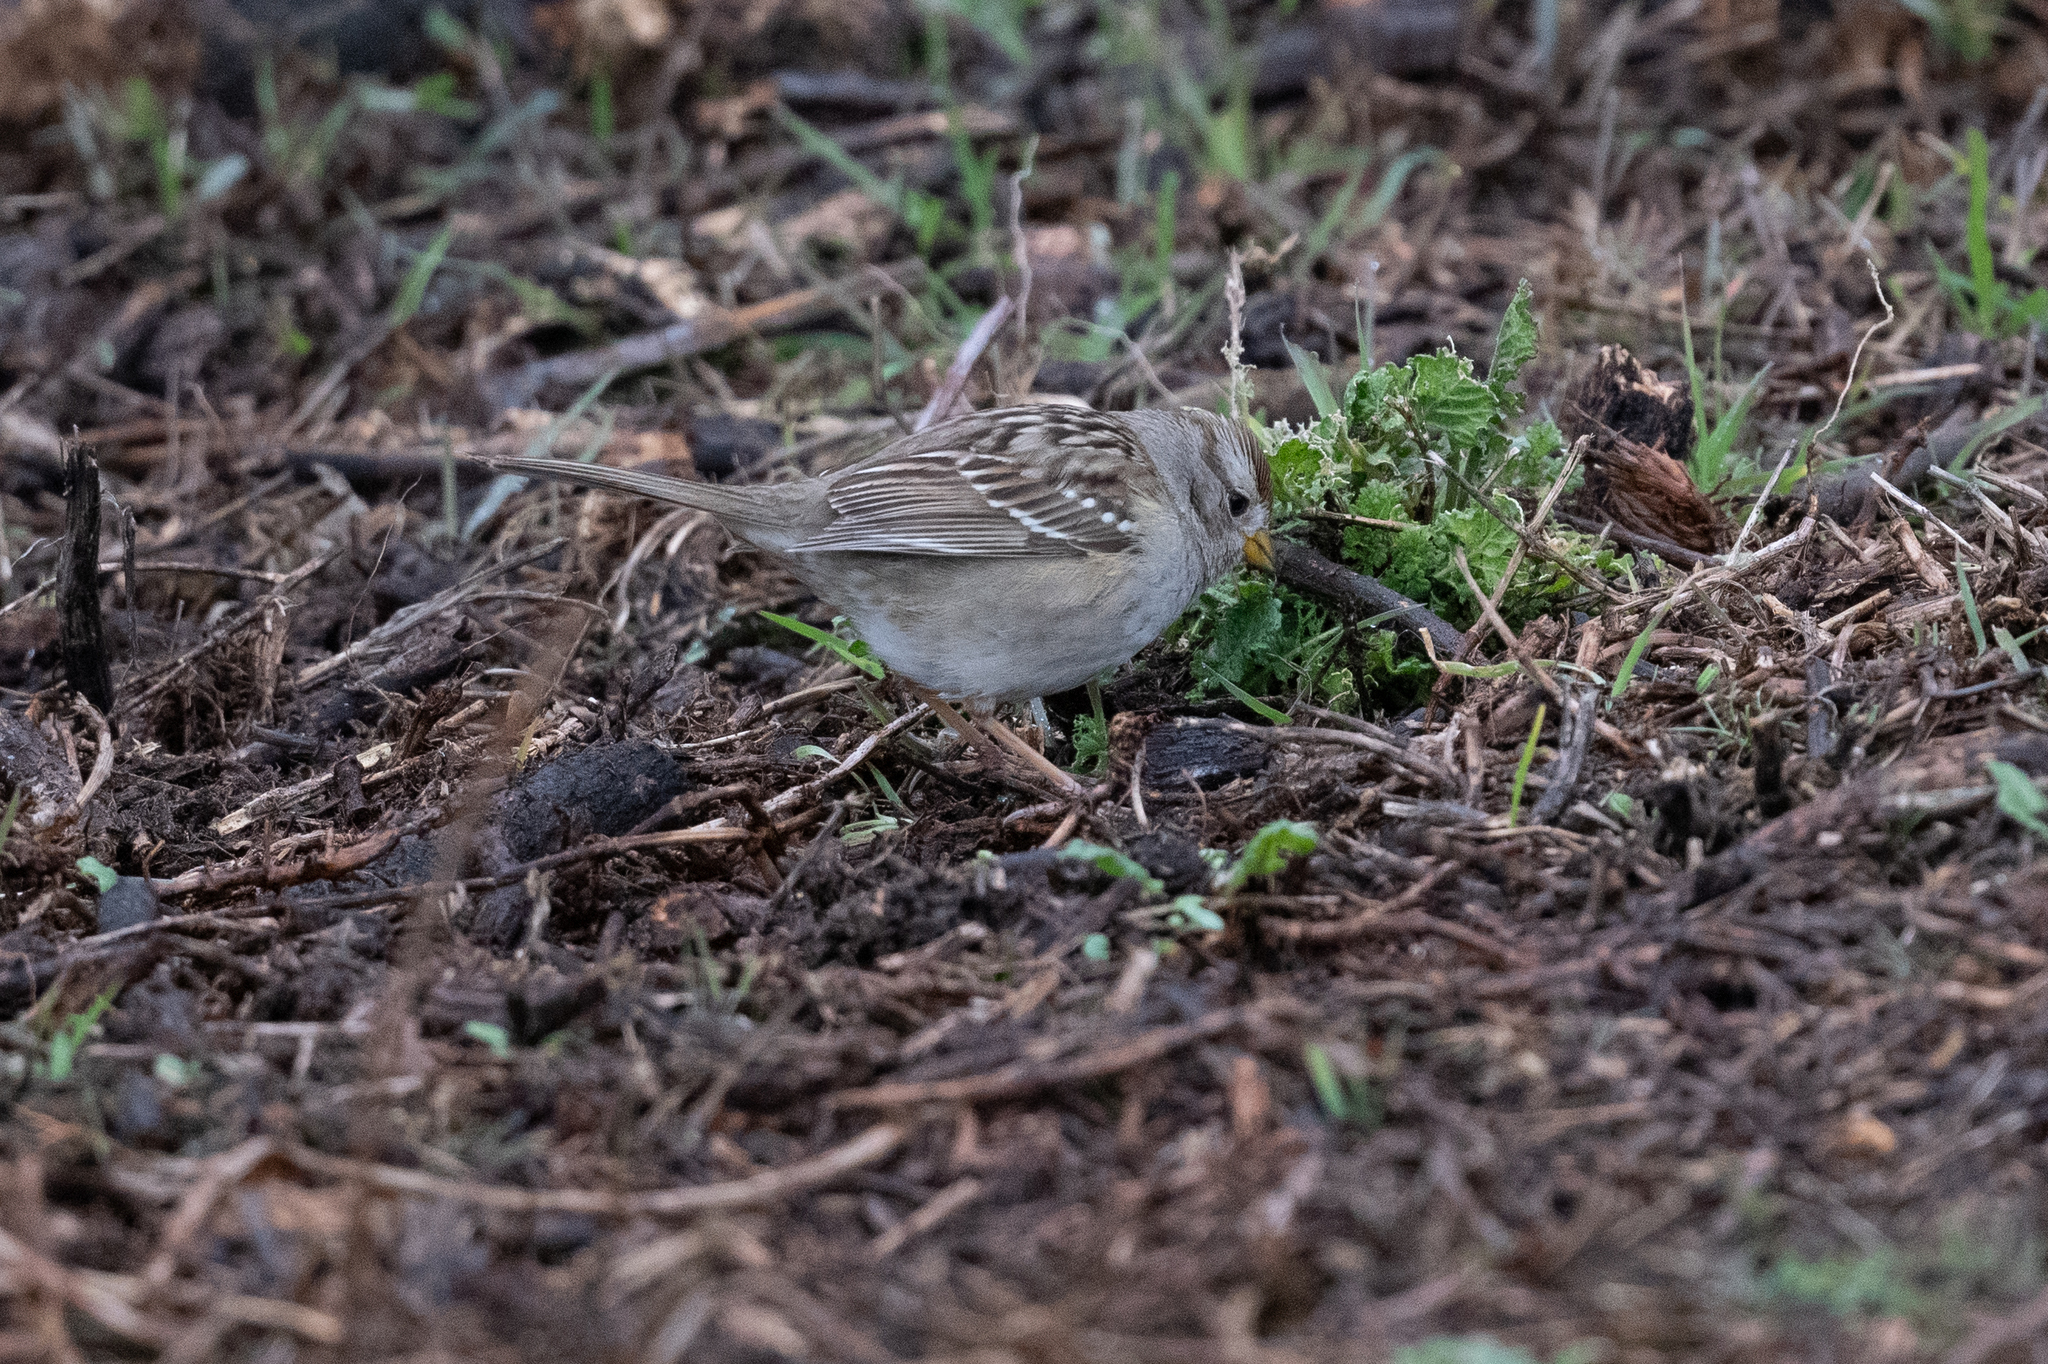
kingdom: Animalia
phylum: Chordata
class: Aves
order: Passeriformes
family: Passerellidae
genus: Zonotrichia
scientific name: Zonotrichia leucophrys
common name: White-crowned sparrow
